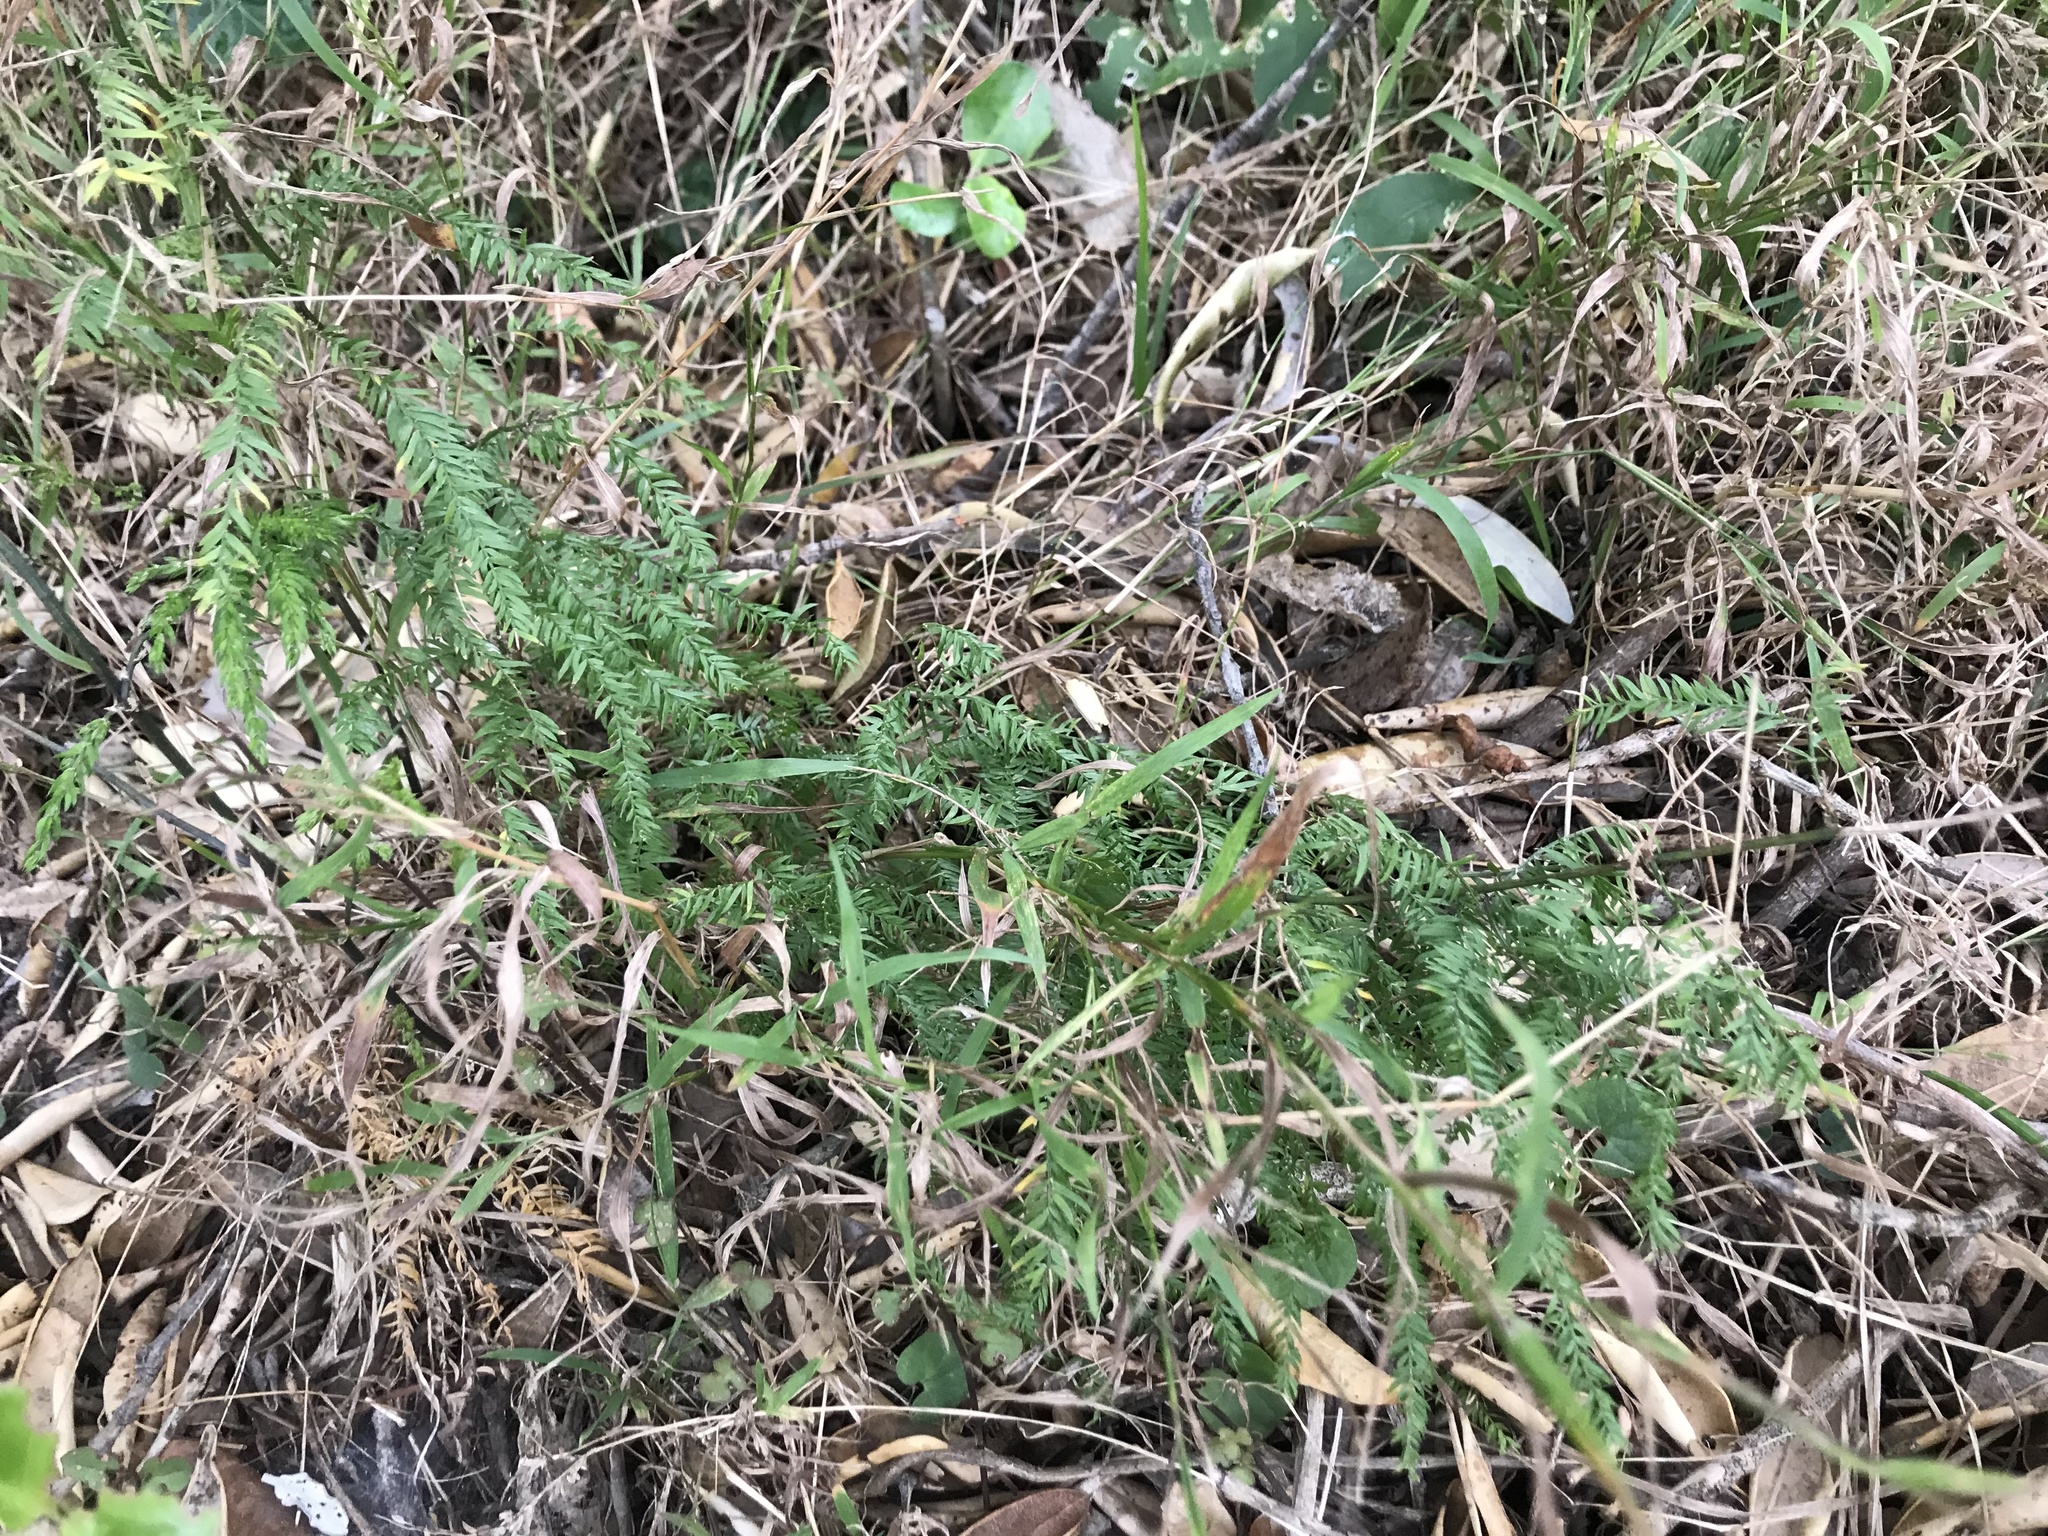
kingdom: Plantae
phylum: Tracheophyta
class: Liliopsida
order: Asparagales
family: Asparagaceae
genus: Asparagus
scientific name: Asparagus scandens
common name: Asparagus-fern
